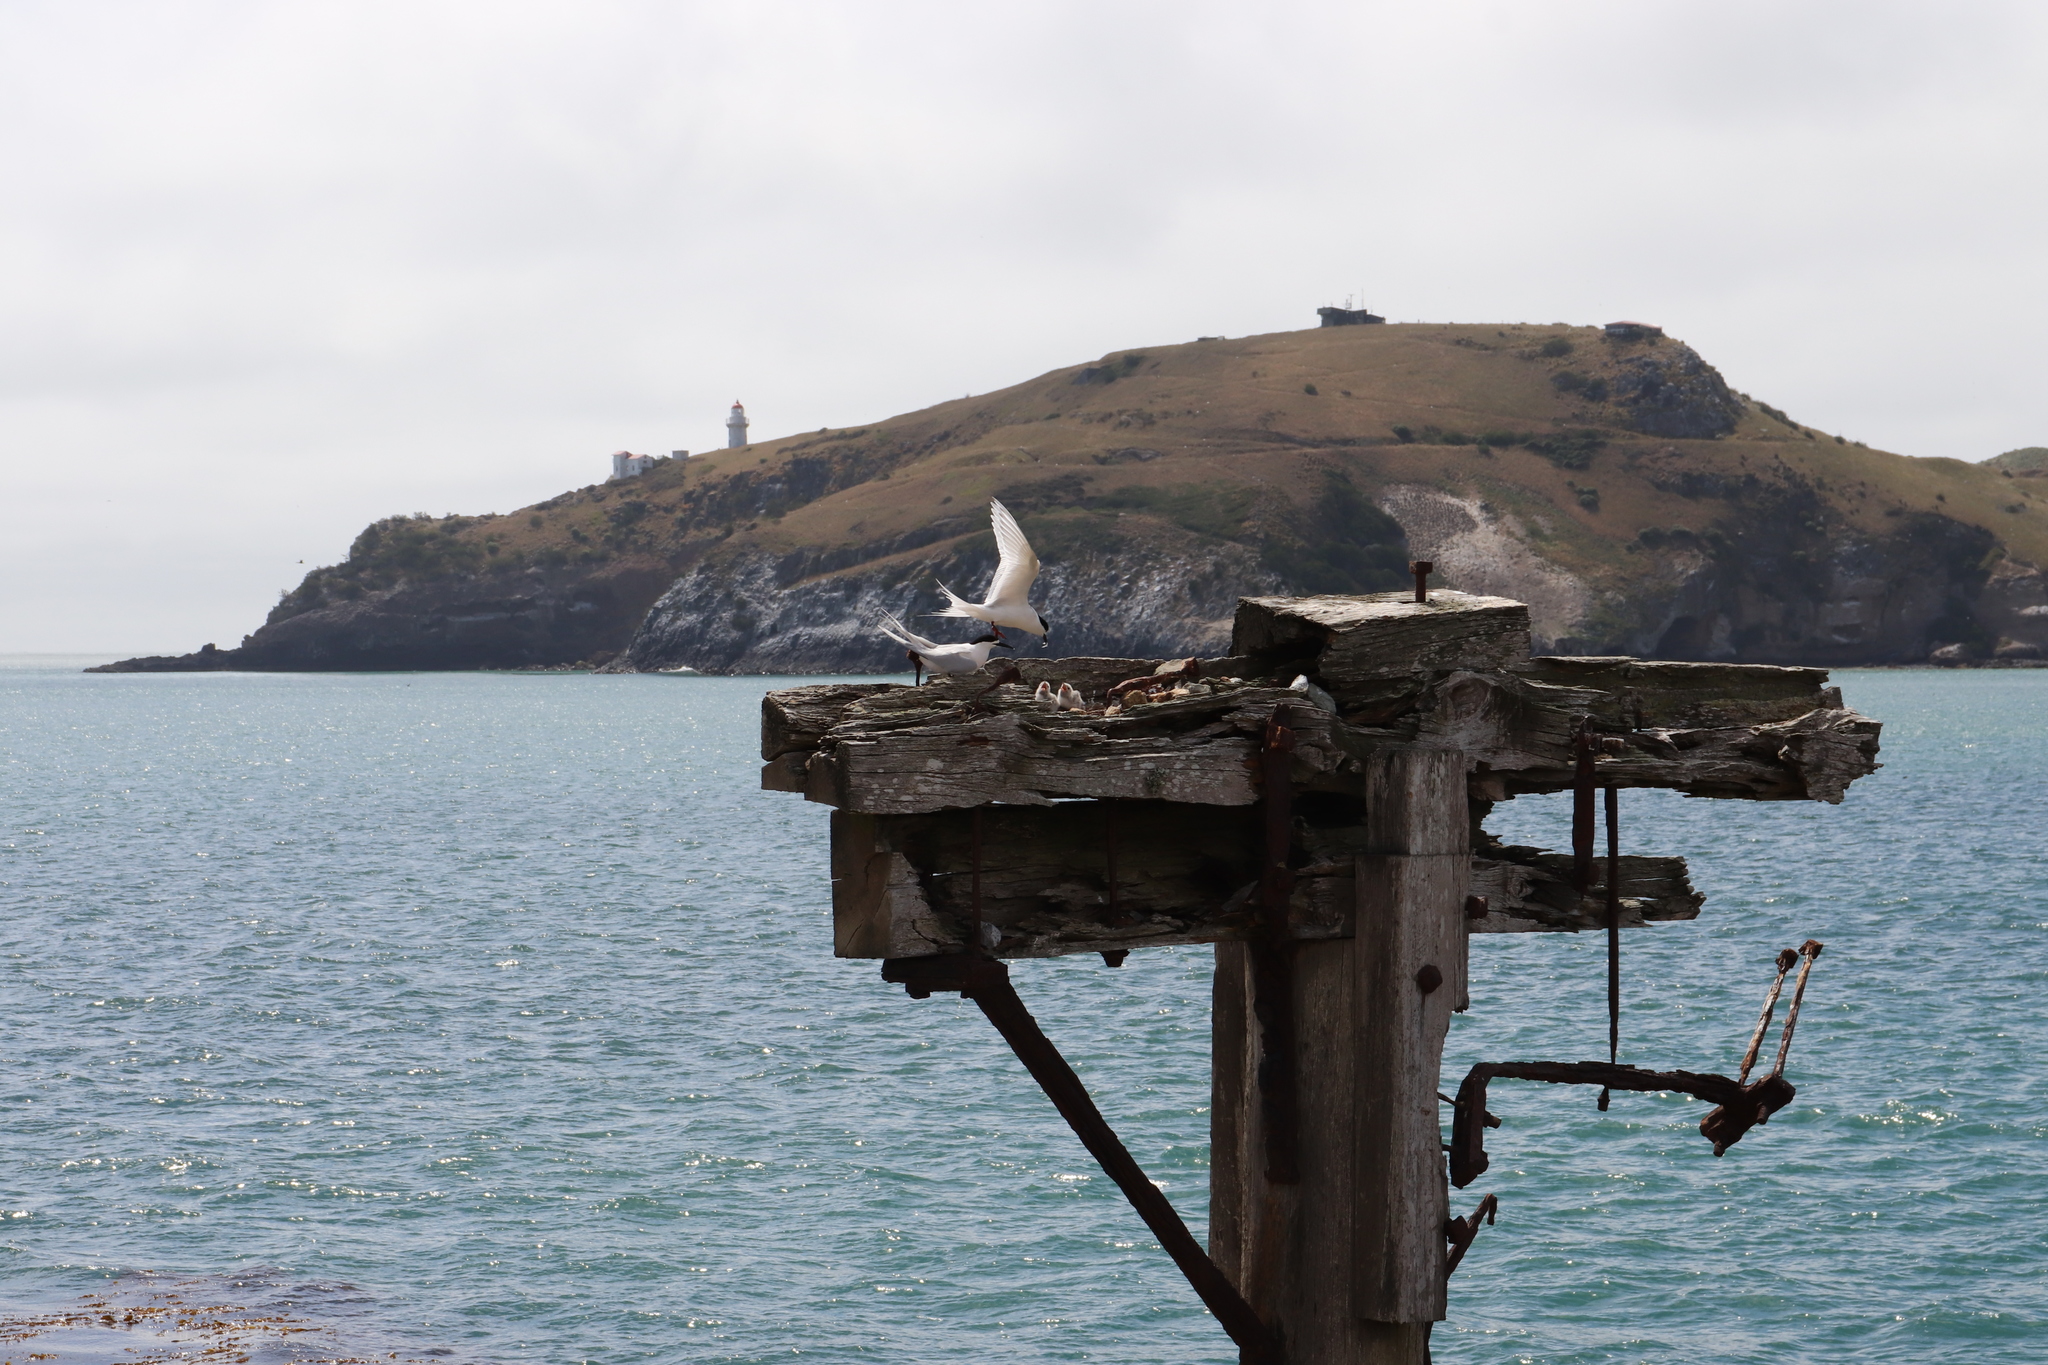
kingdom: Animalia
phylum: Chordata
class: Aves
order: Charadriiformes
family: Laridae
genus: Sterna
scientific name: Sterna striata
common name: White-fronted tern
